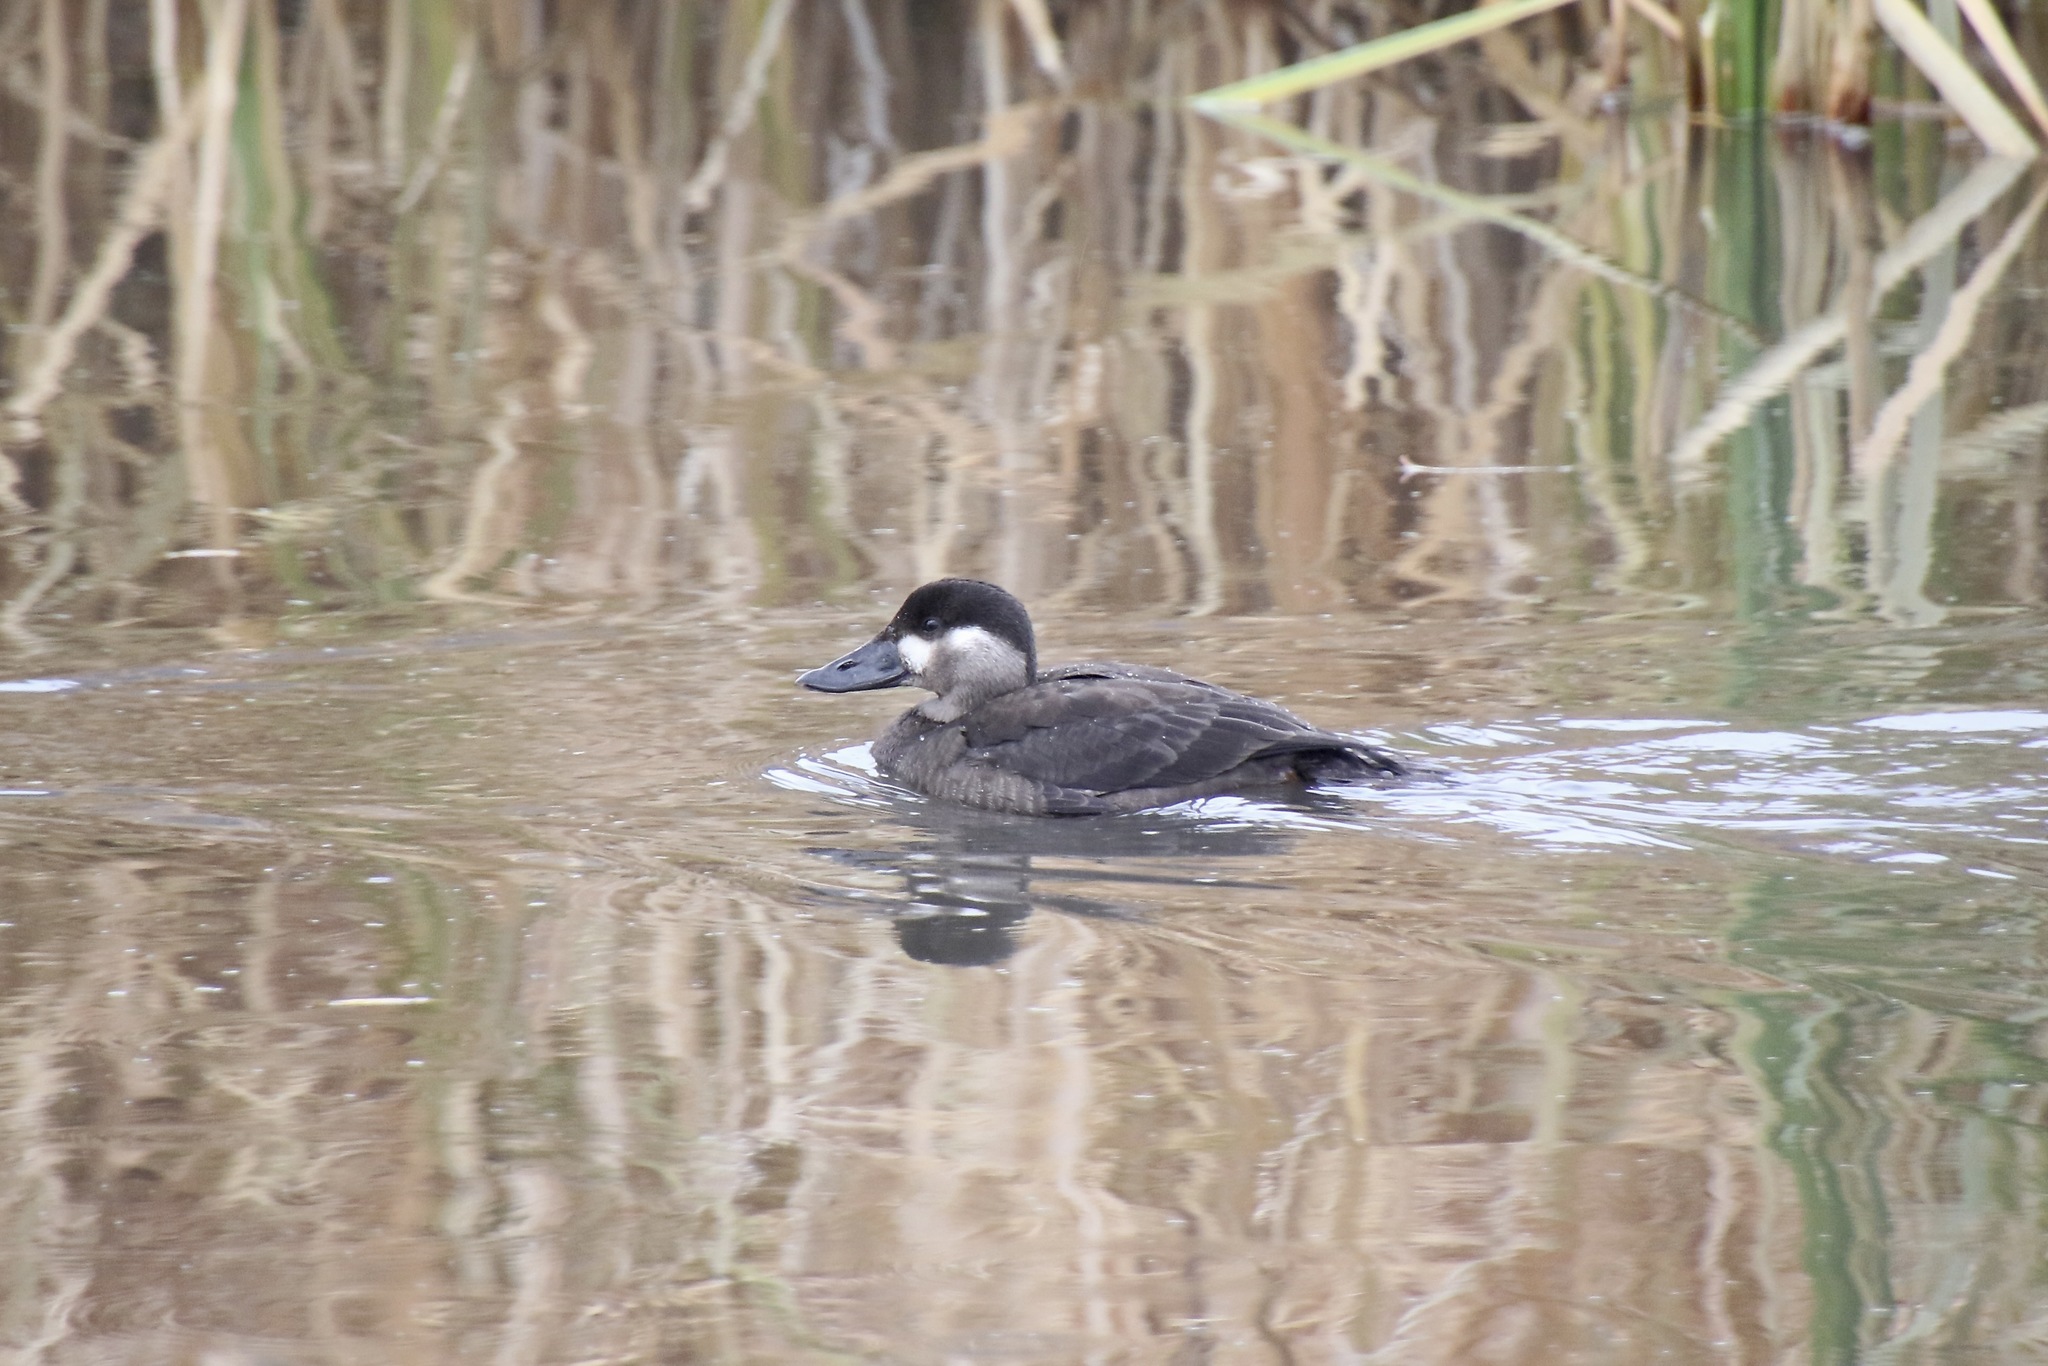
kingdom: Animalia
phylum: Chordata
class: Aves
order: Anseriformes
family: Anatidae
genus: Melanitta
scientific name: Melanitta perspicillata
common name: Surf scoter
